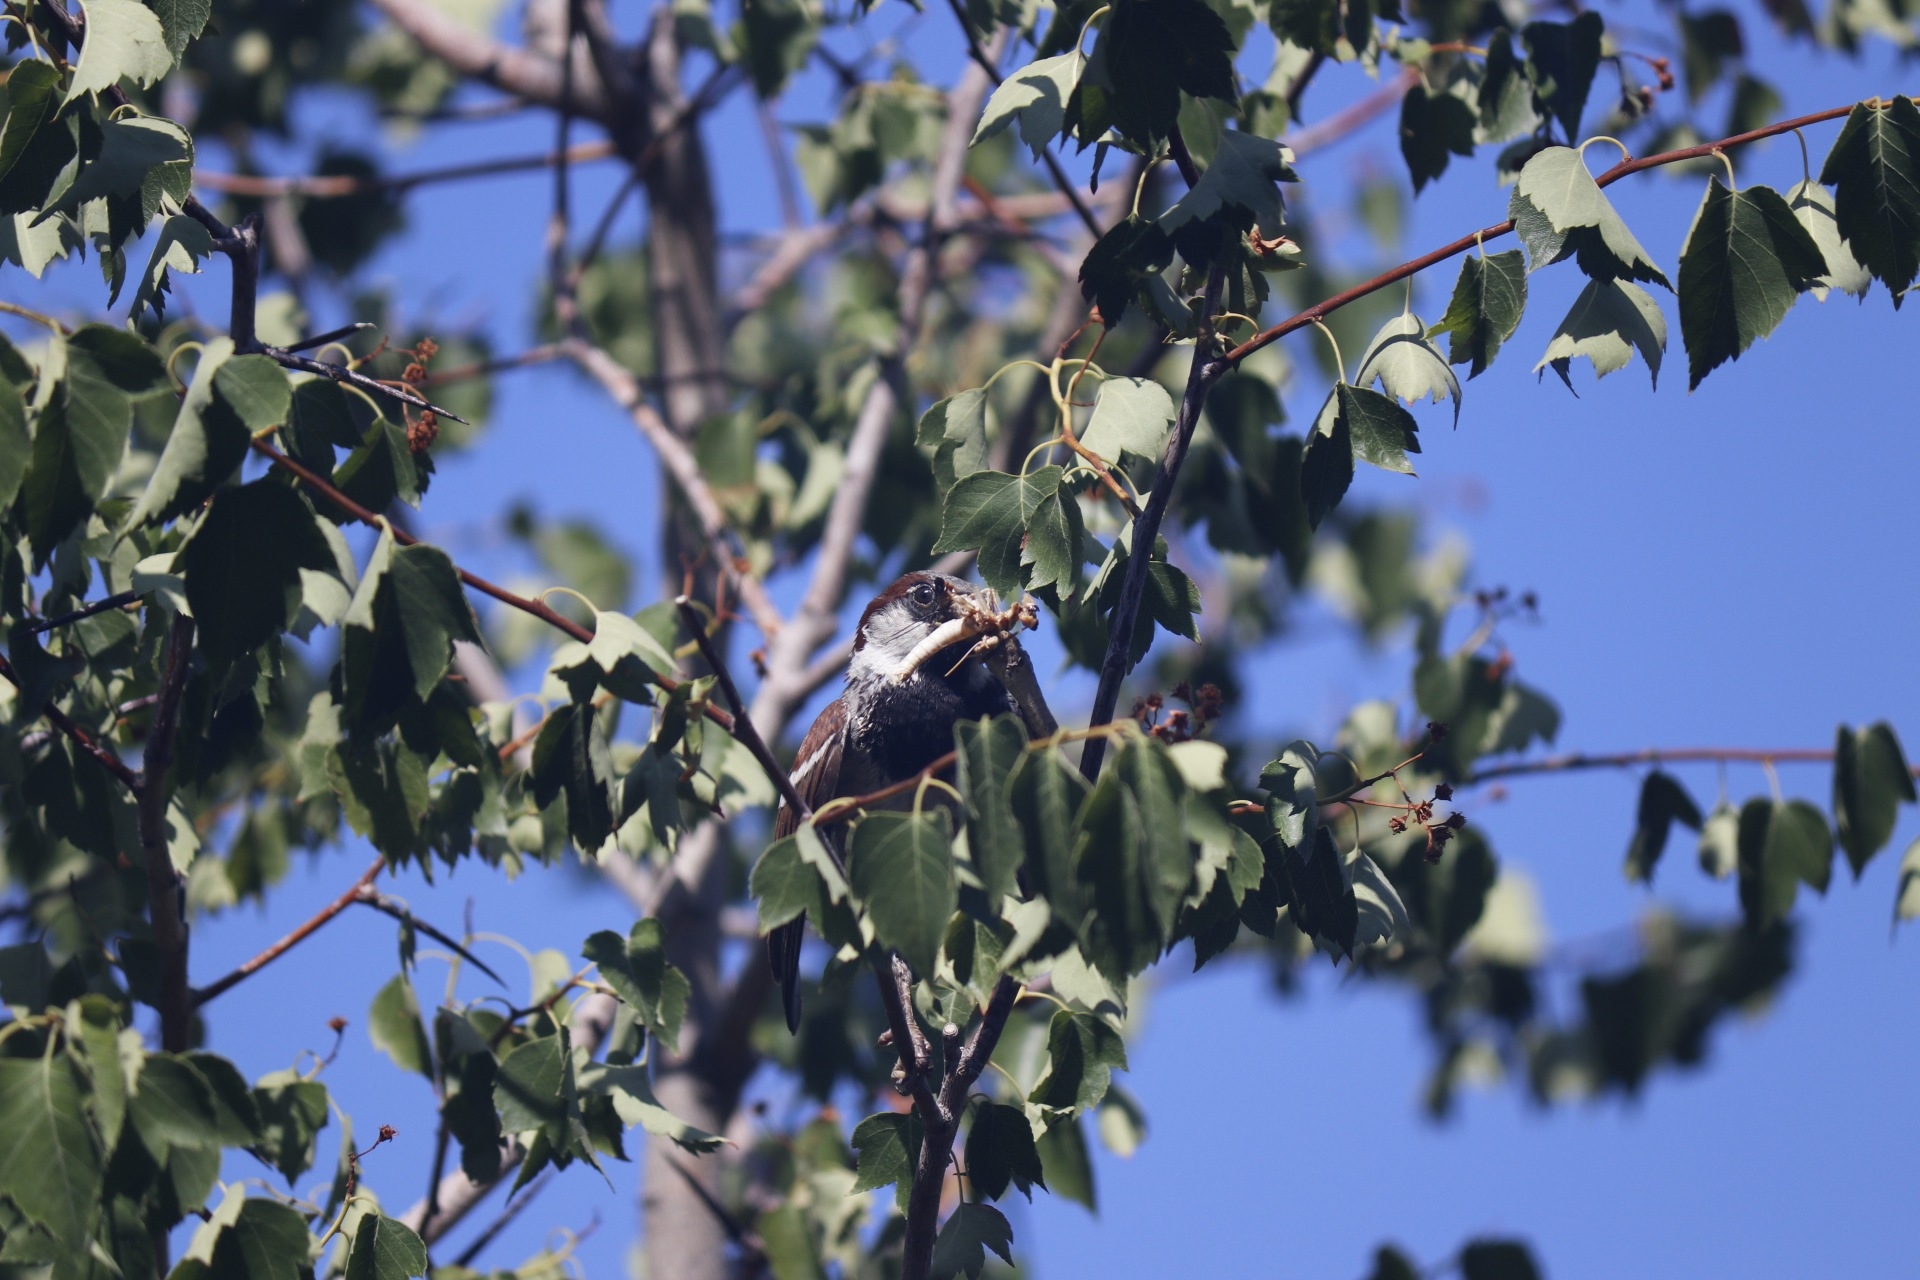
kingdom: Animalia
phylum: Chordata
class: Aves
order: Passeriformes
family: Passeridae
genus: Passer
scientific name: Passer domesticus
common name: House sparrow
